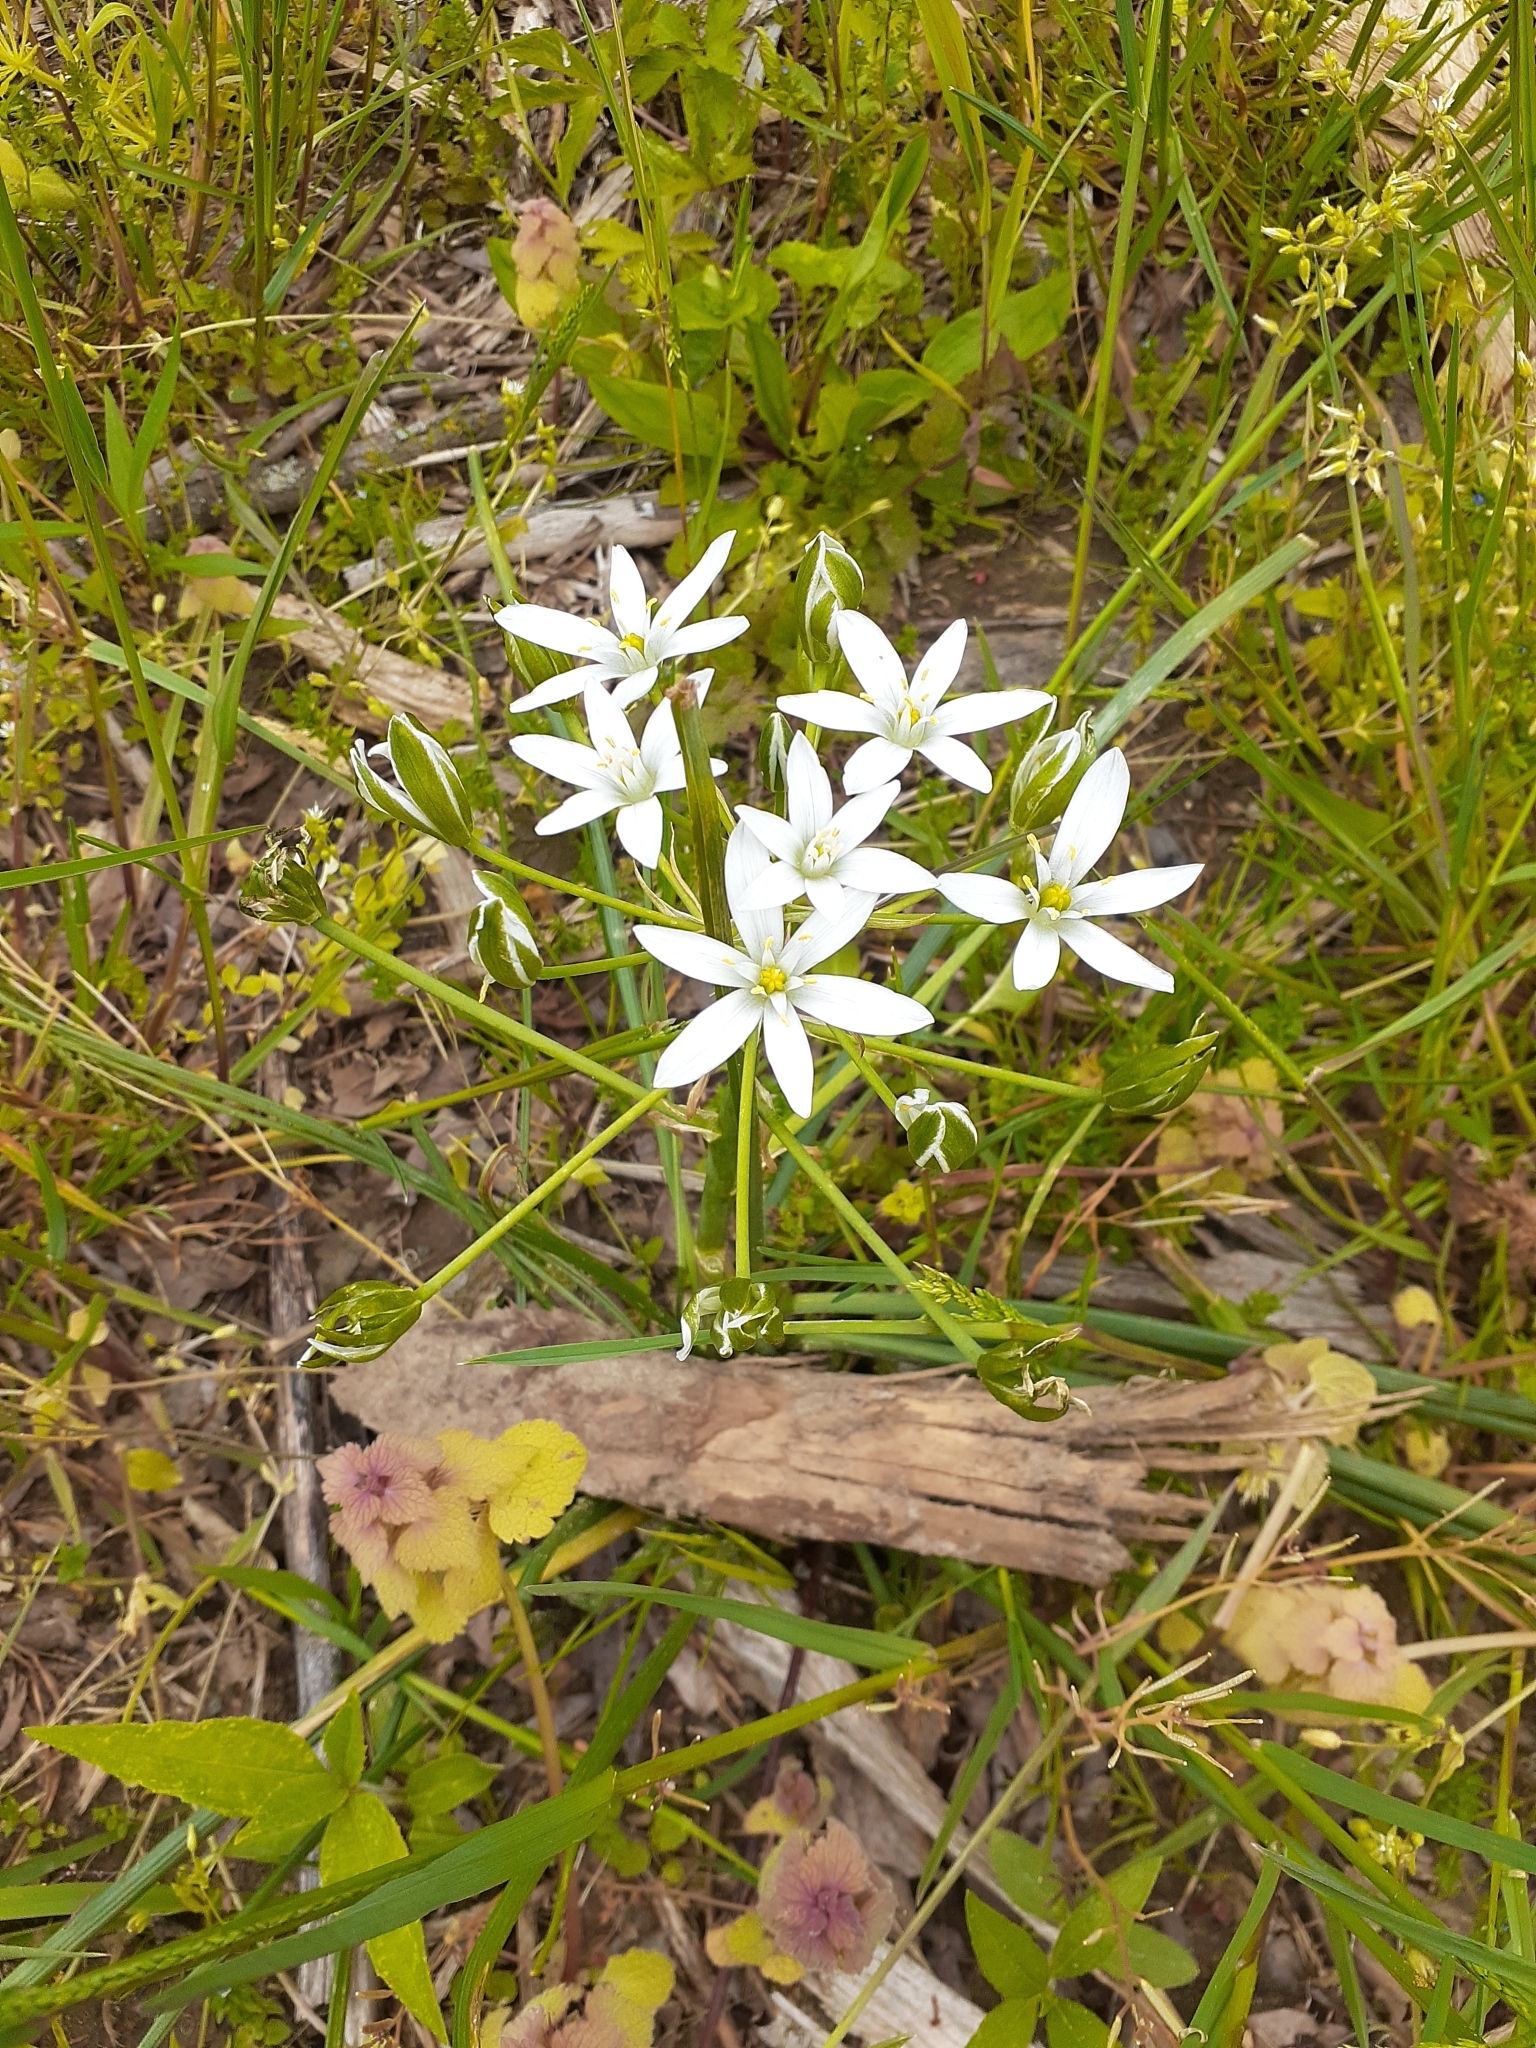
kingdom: Plantae
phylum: Tracheophyta
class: Liliopsida
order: Asparagales
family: Asparagaceae
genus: Ornithogalum
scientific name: Ornithogalum umbellatum
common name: Garden star-of-bethlehem
